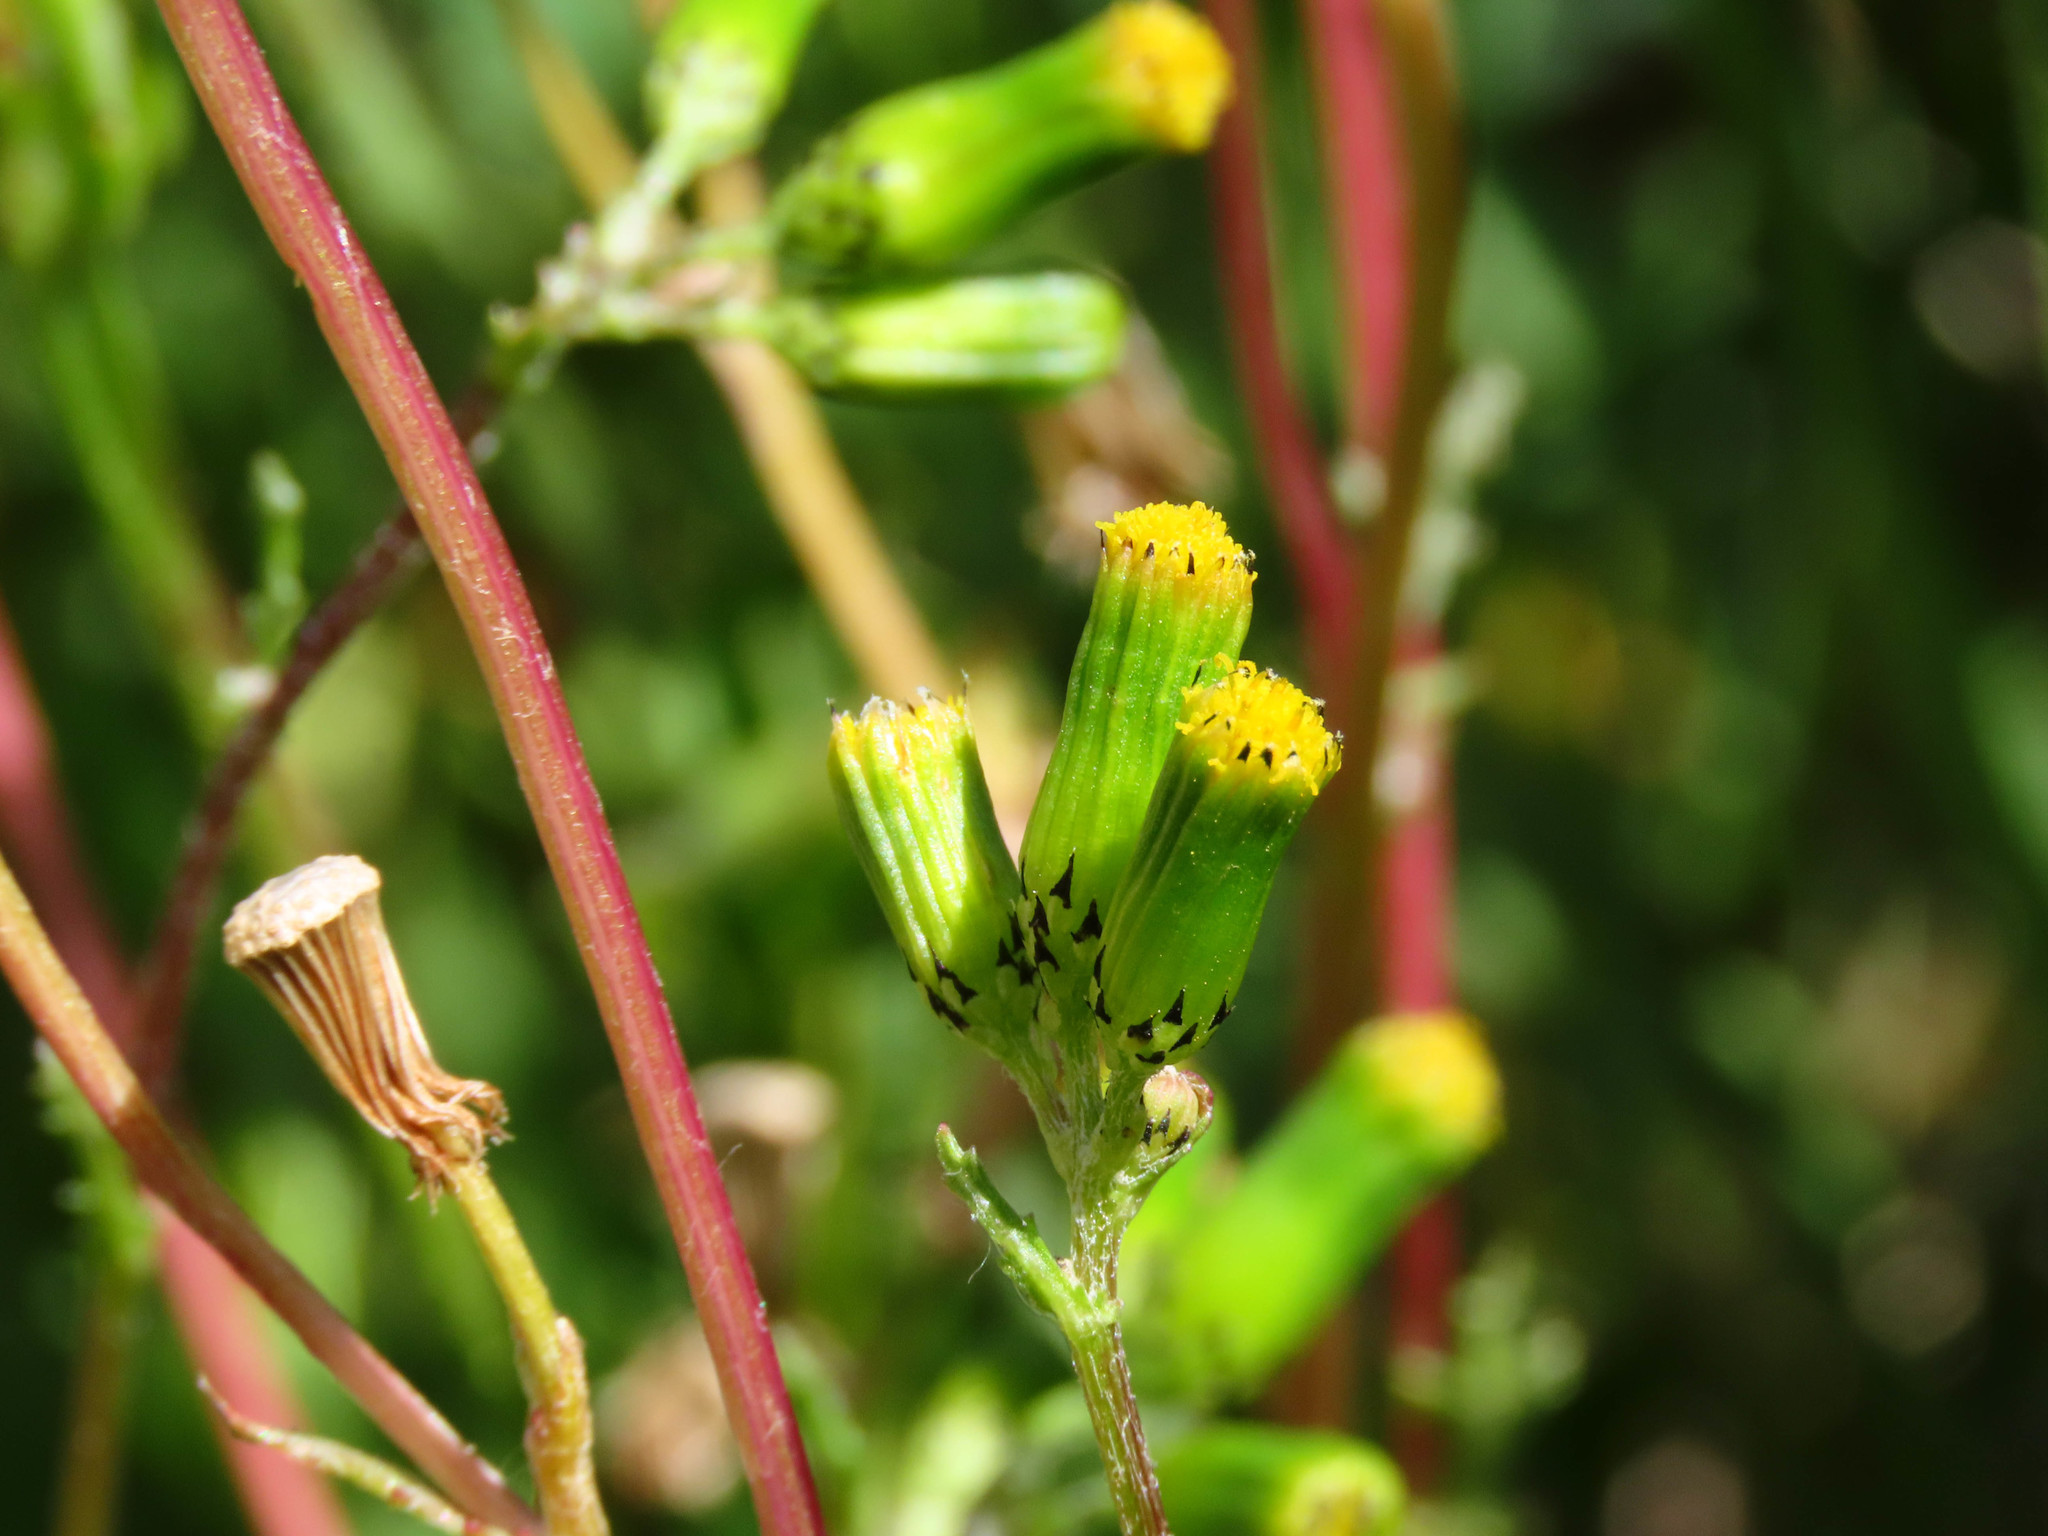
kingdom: Plantae
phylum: Tracheophyta
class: Magnoliopsida
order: Asterales
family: Asteraceae
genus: Senecio
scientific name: Senecio vulgaris
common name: Old-man-in-the-spring
